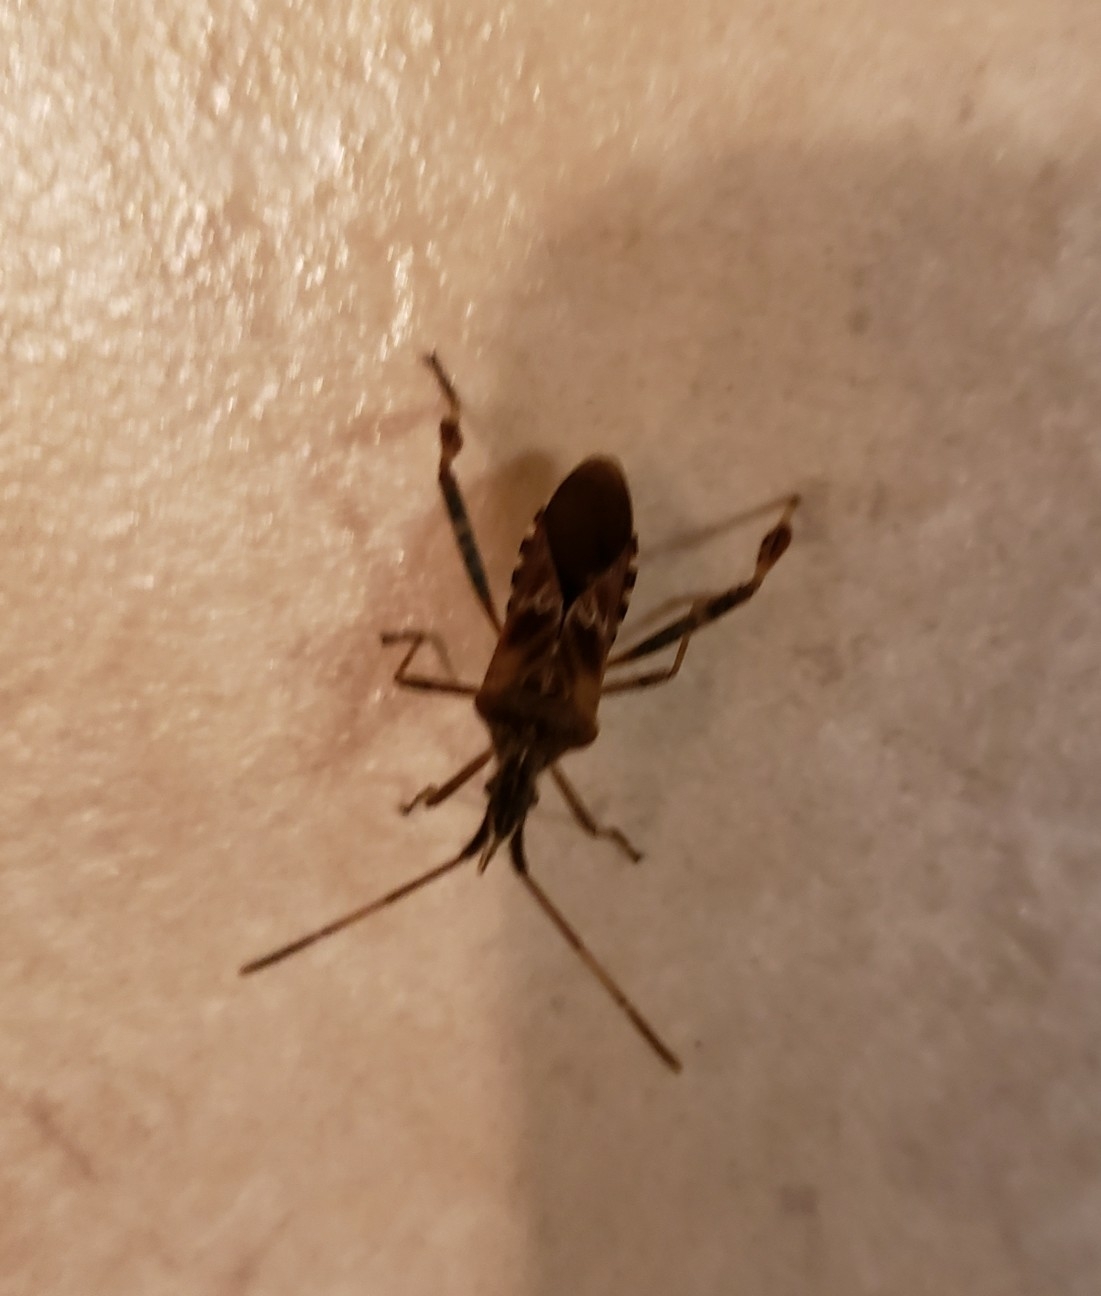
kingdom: Animalia
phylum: Arthropoda
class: Insecta
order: Hemiptera
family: Coreidae
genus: Leptoglossus
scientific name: Leptoglossus occidentalis
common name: Western conifer-seed bug
